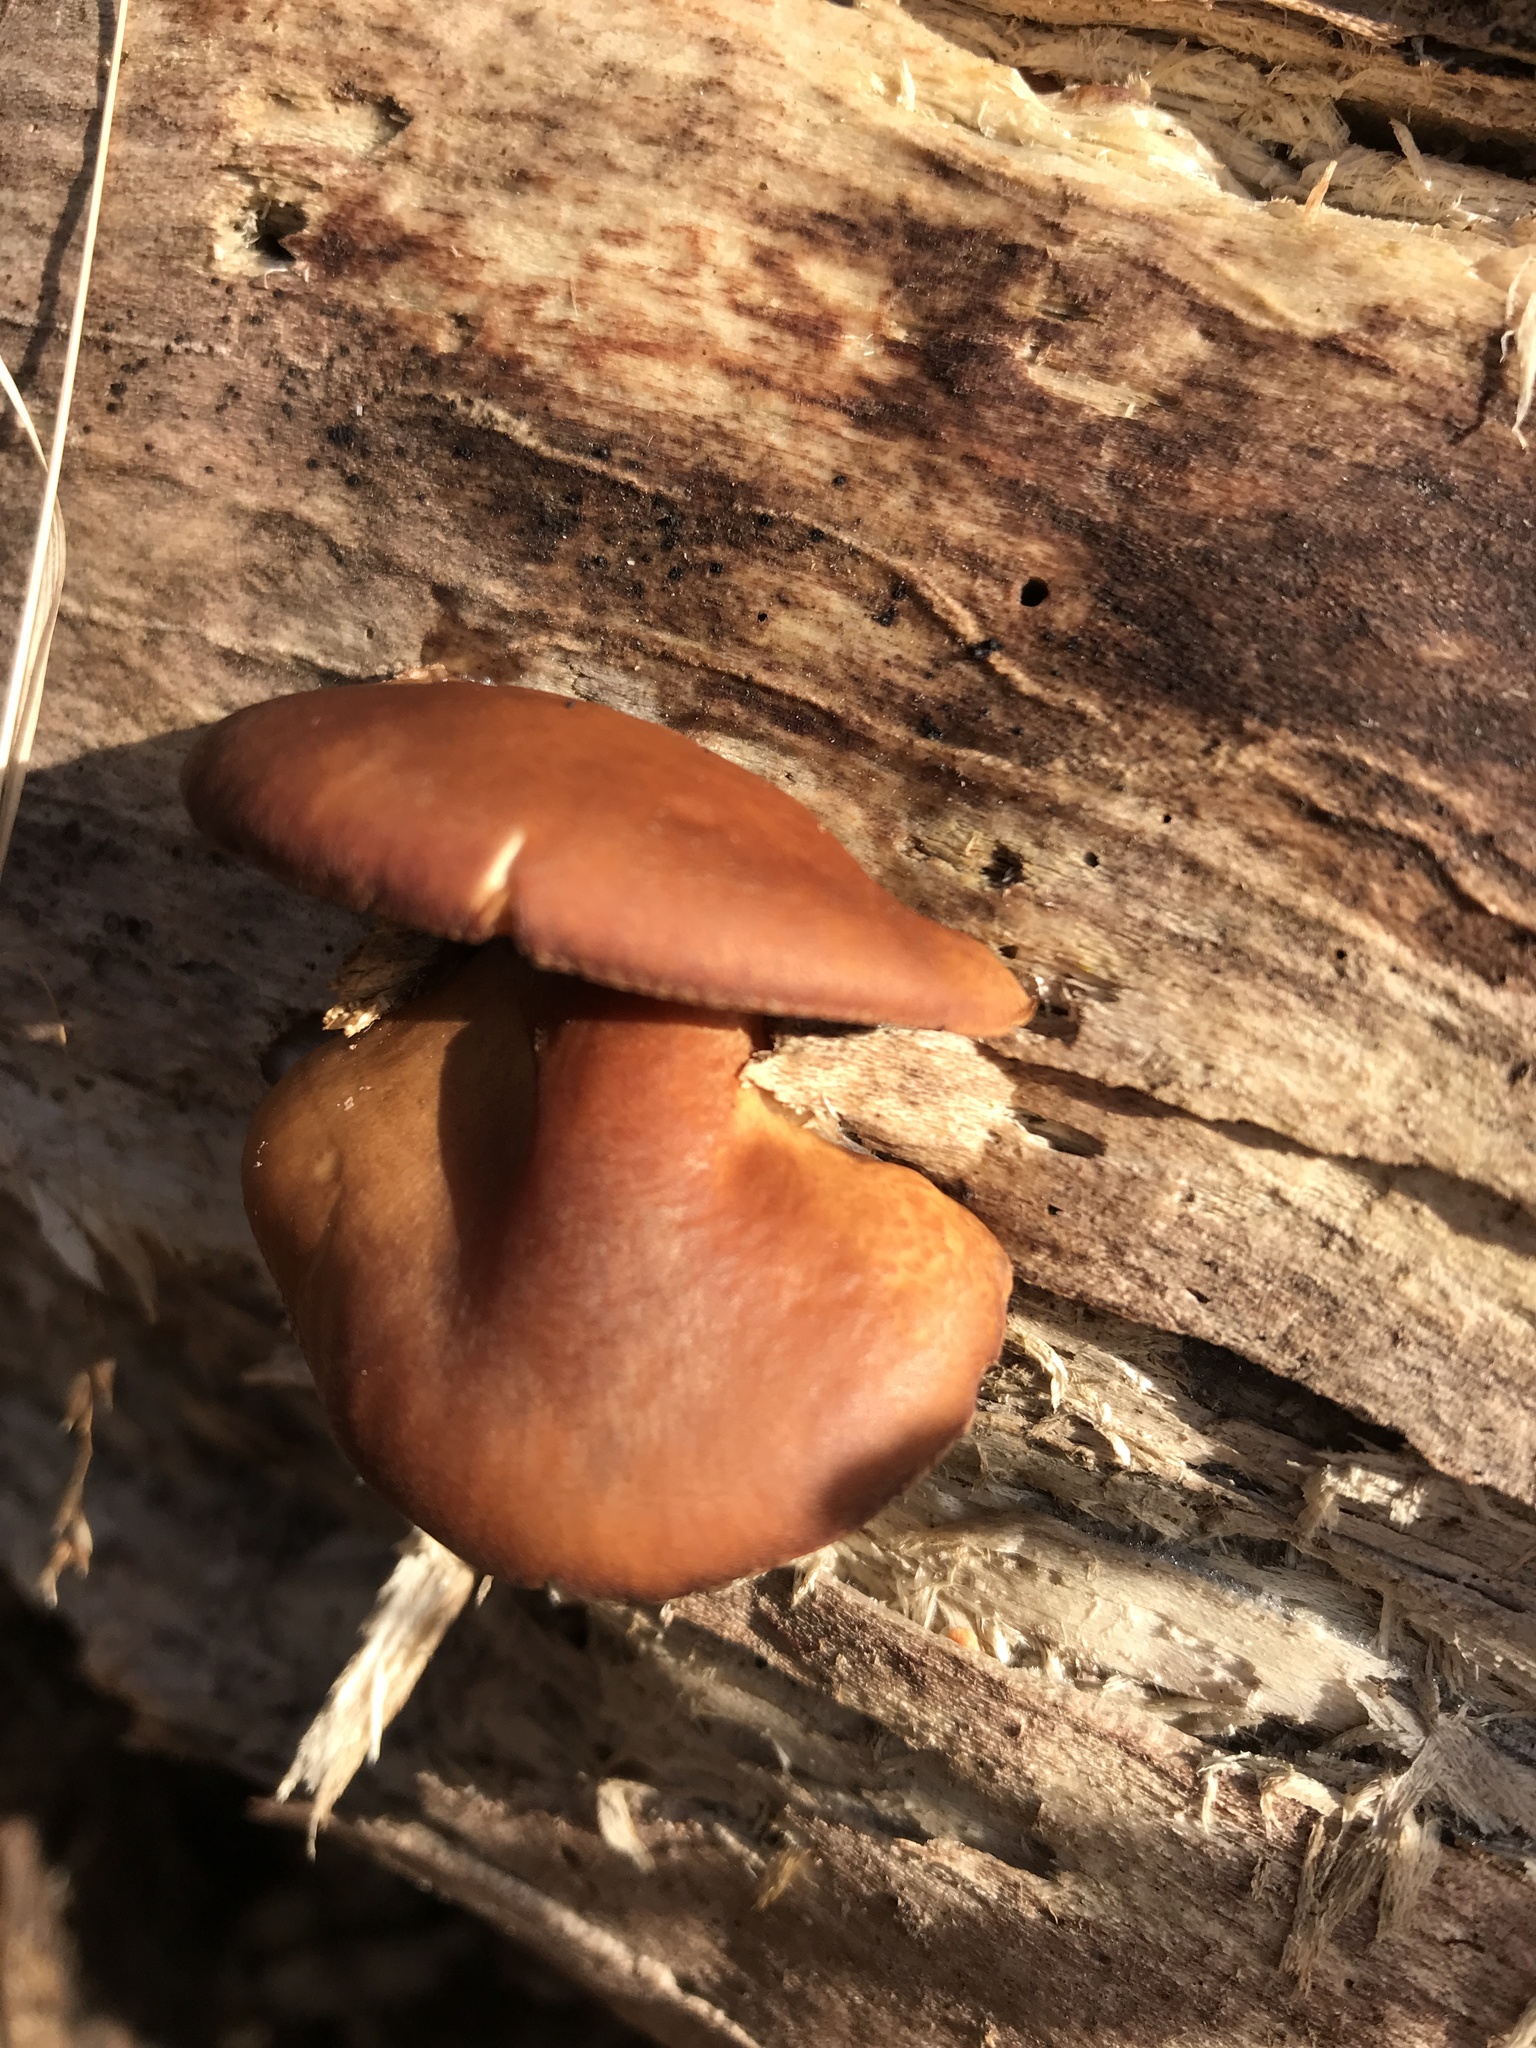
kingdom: Fungi
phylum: Basidiomycota
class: Agaricomycetes
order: Agaricales
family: Hymenogastraceae
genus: Gymnopilus
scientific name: Gymnopilus sapineus
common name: Scaly rustgill
